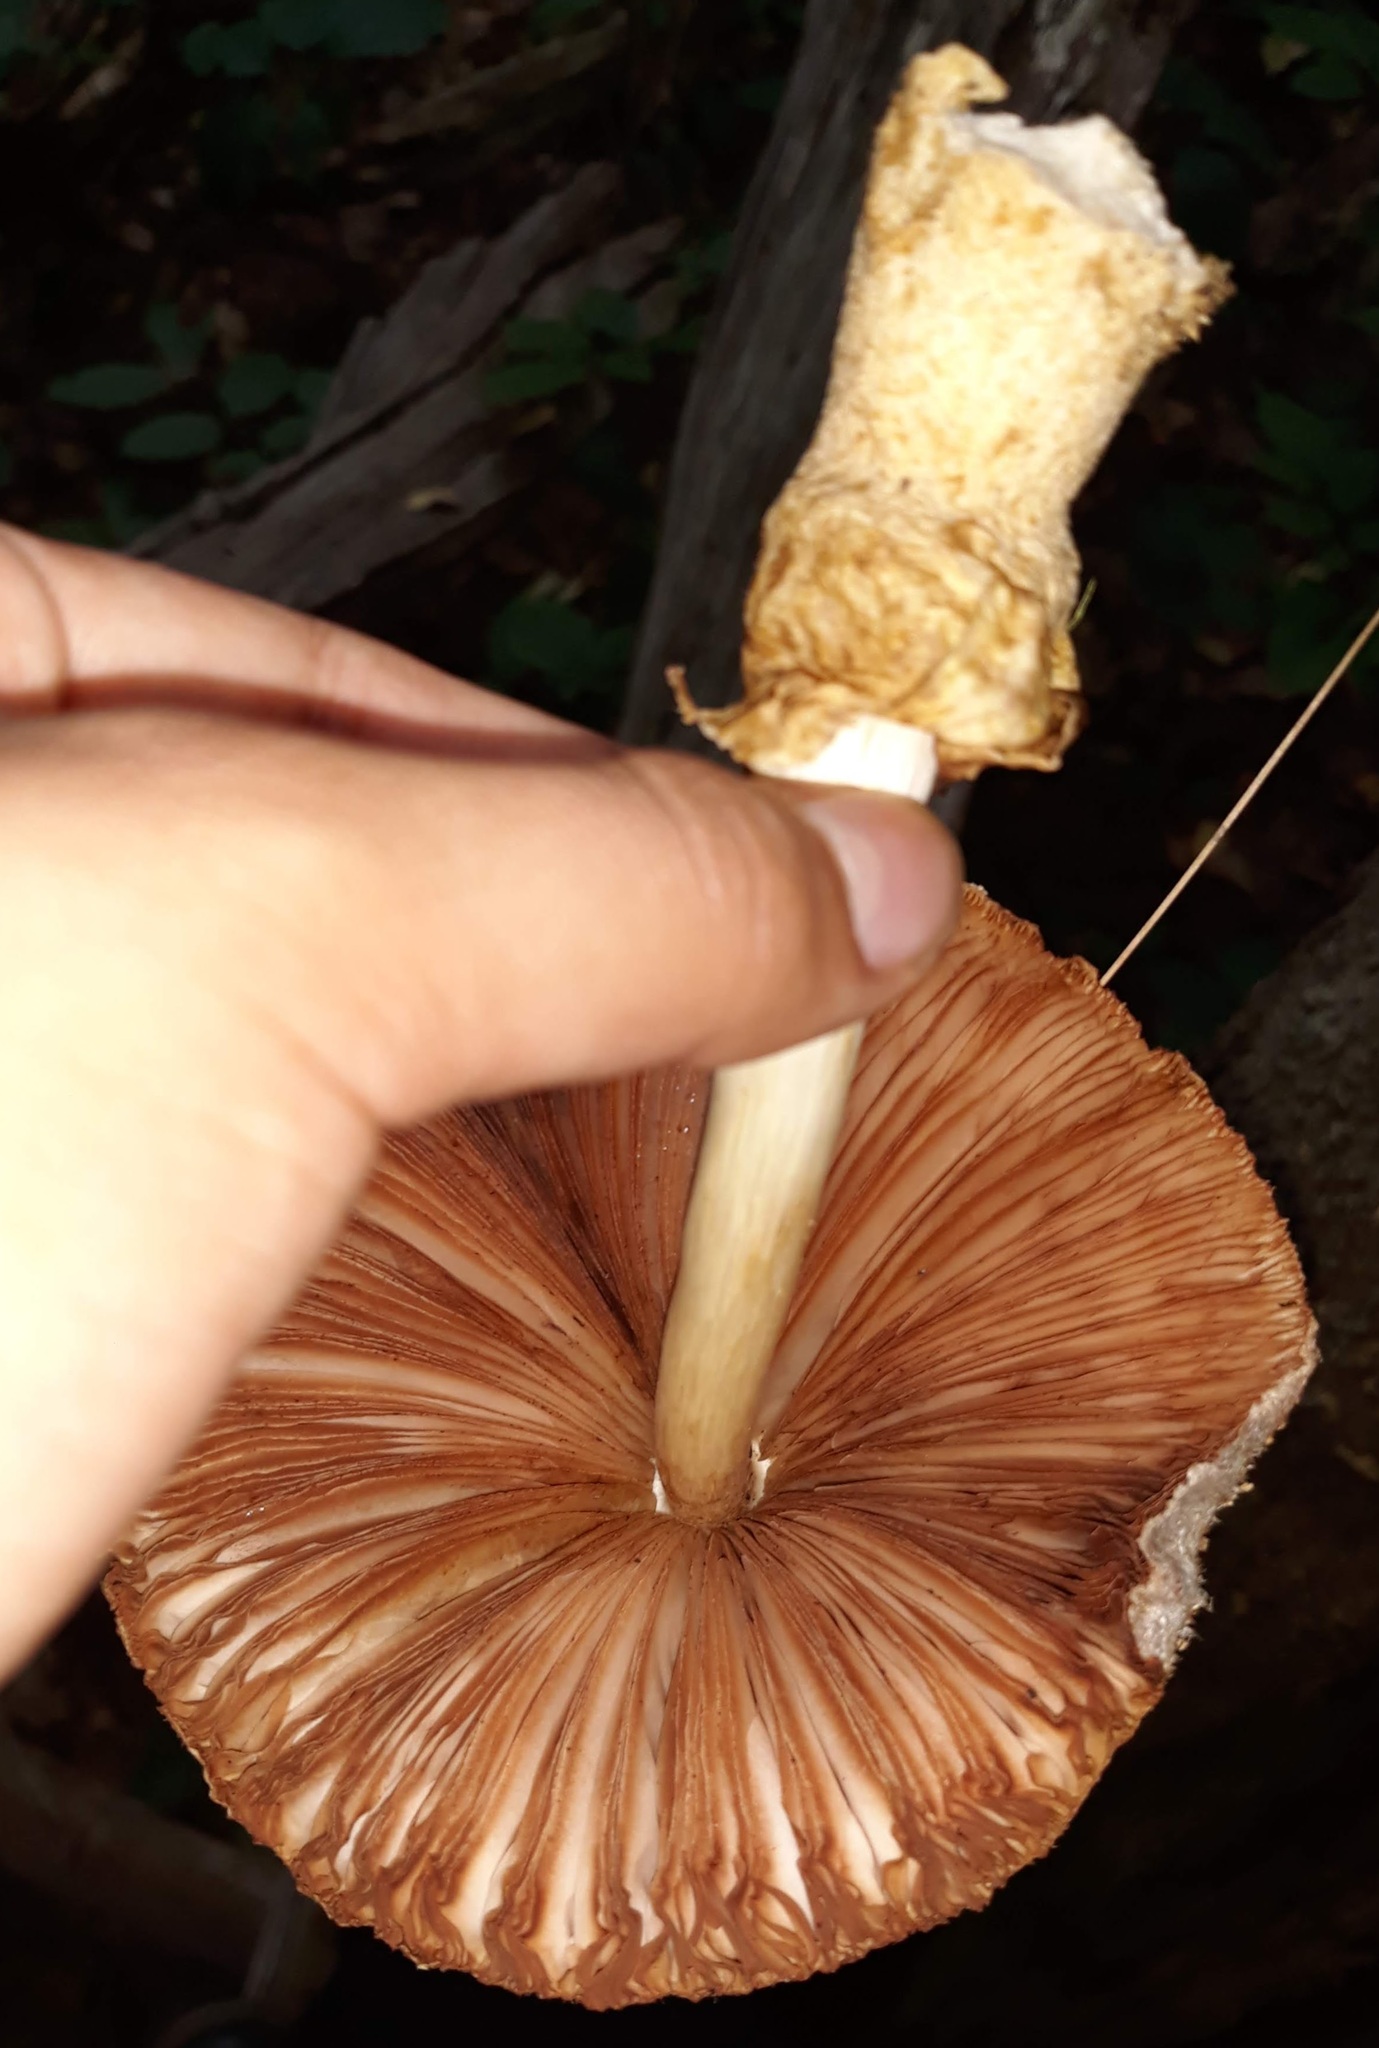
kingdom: Fungi
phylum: Basidiomycota
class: Agaricomycetes
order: Agaricales
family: Pluteaceae
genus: Volvariella
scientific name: Volvariella bombycina
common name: Silky rosegill
